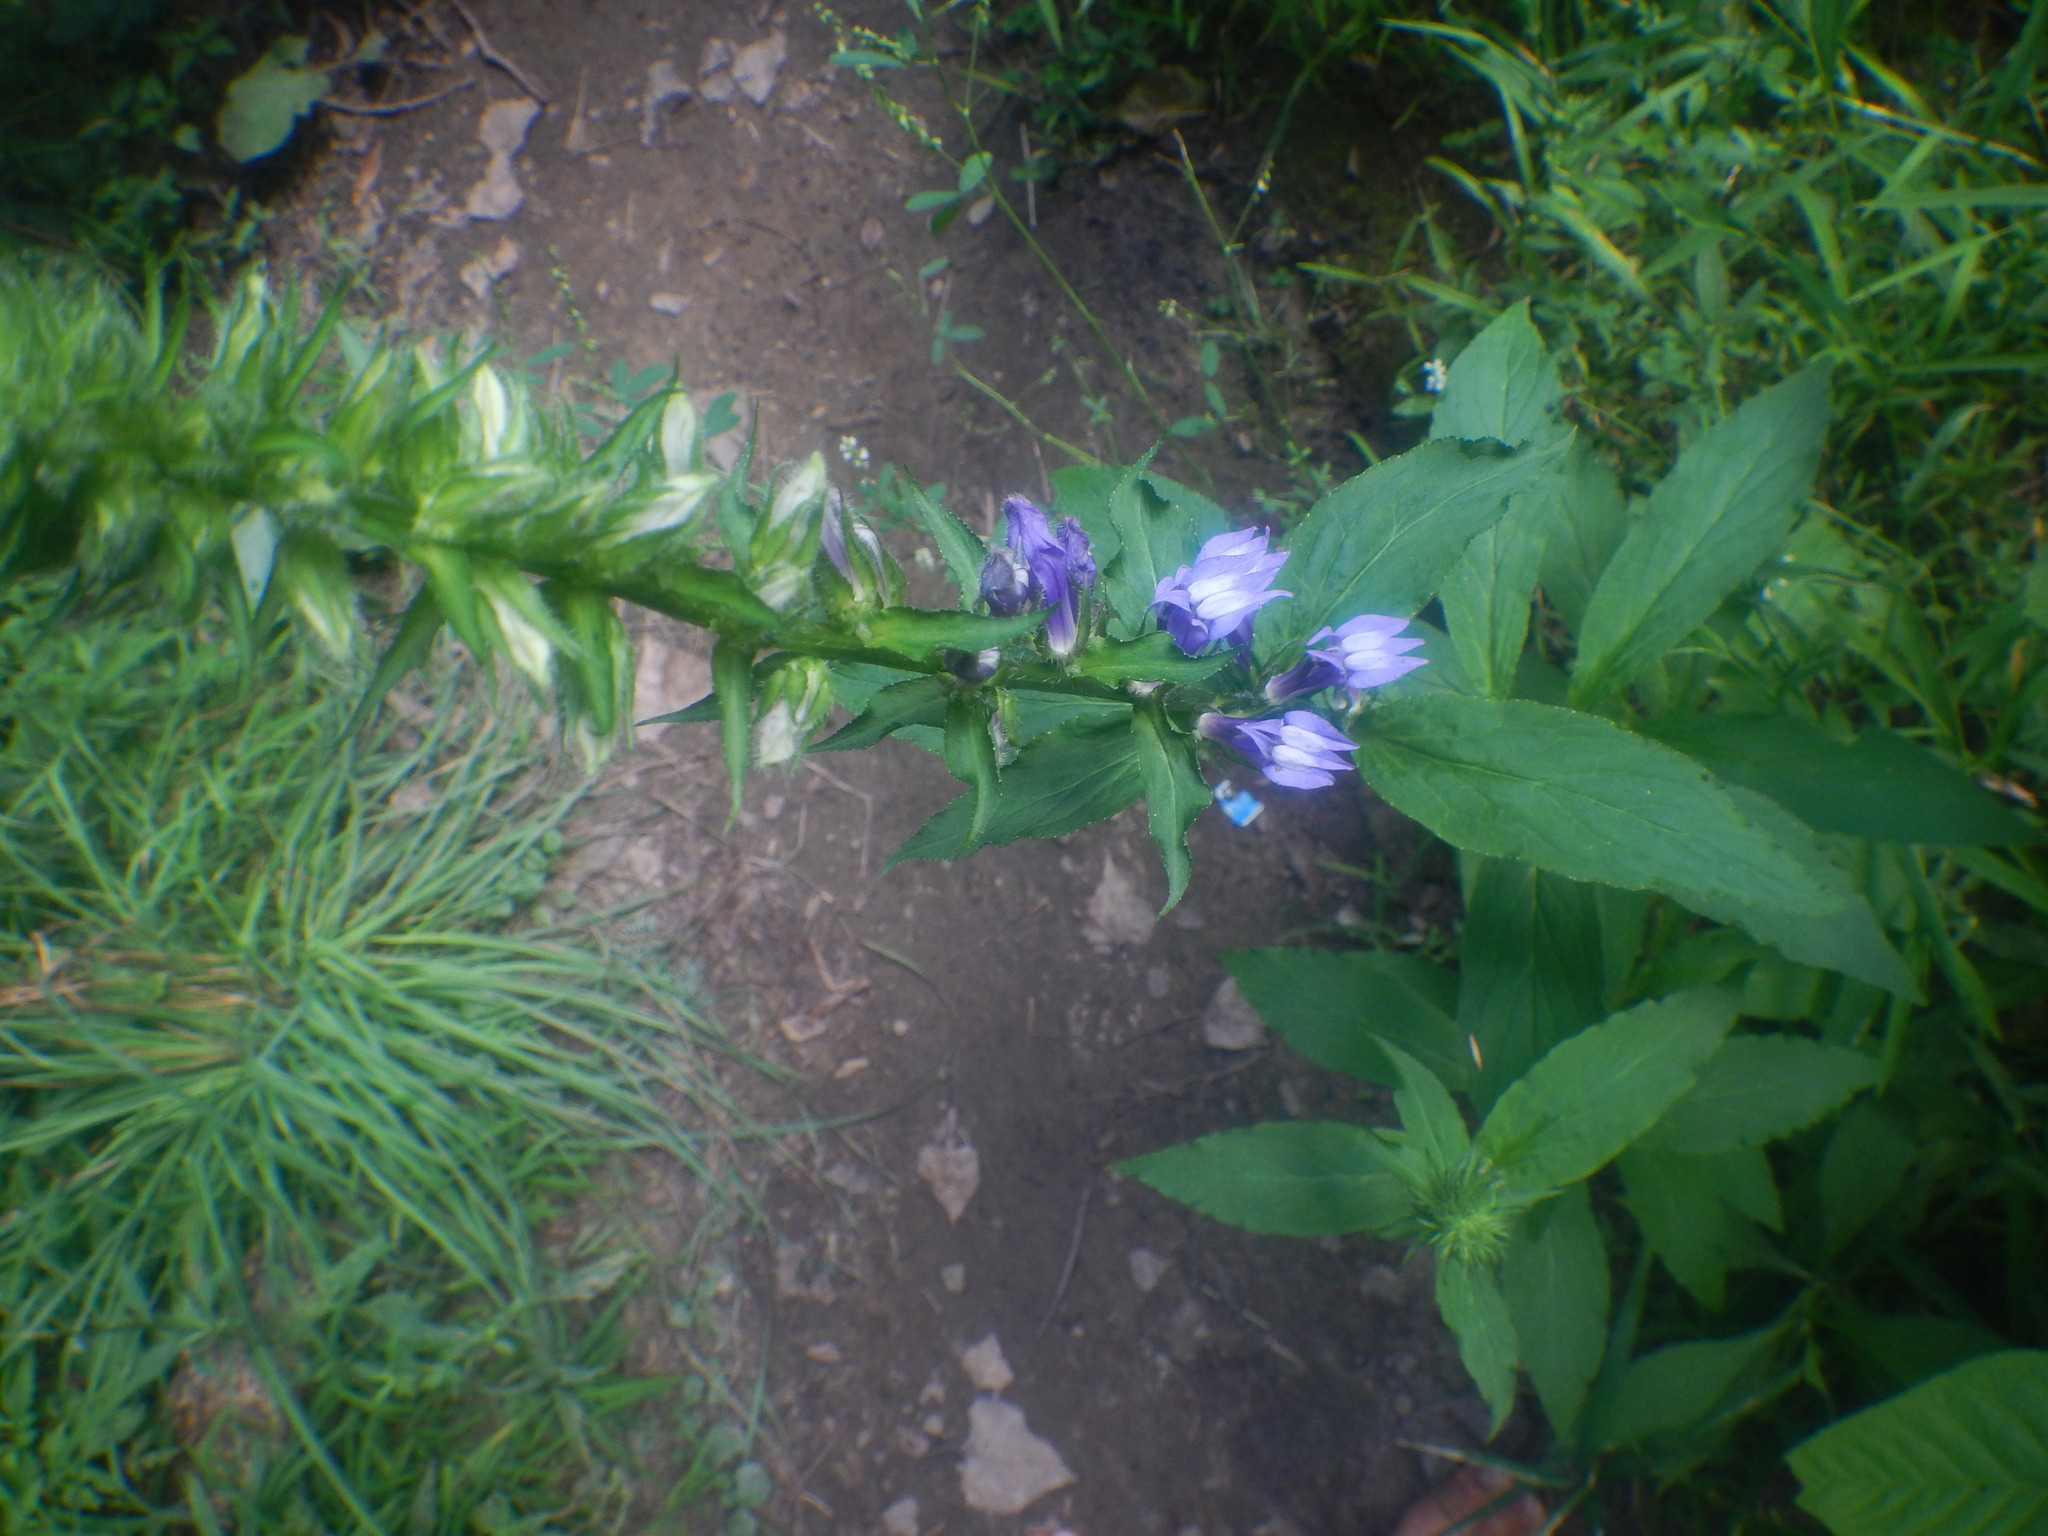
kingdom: Plantae
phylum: Tracheophyta
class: Magnoliopsida
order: Asterales
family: Campanulaceae
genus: Lobelia
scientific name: Lobelia siphilitica
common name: Great lobelia
